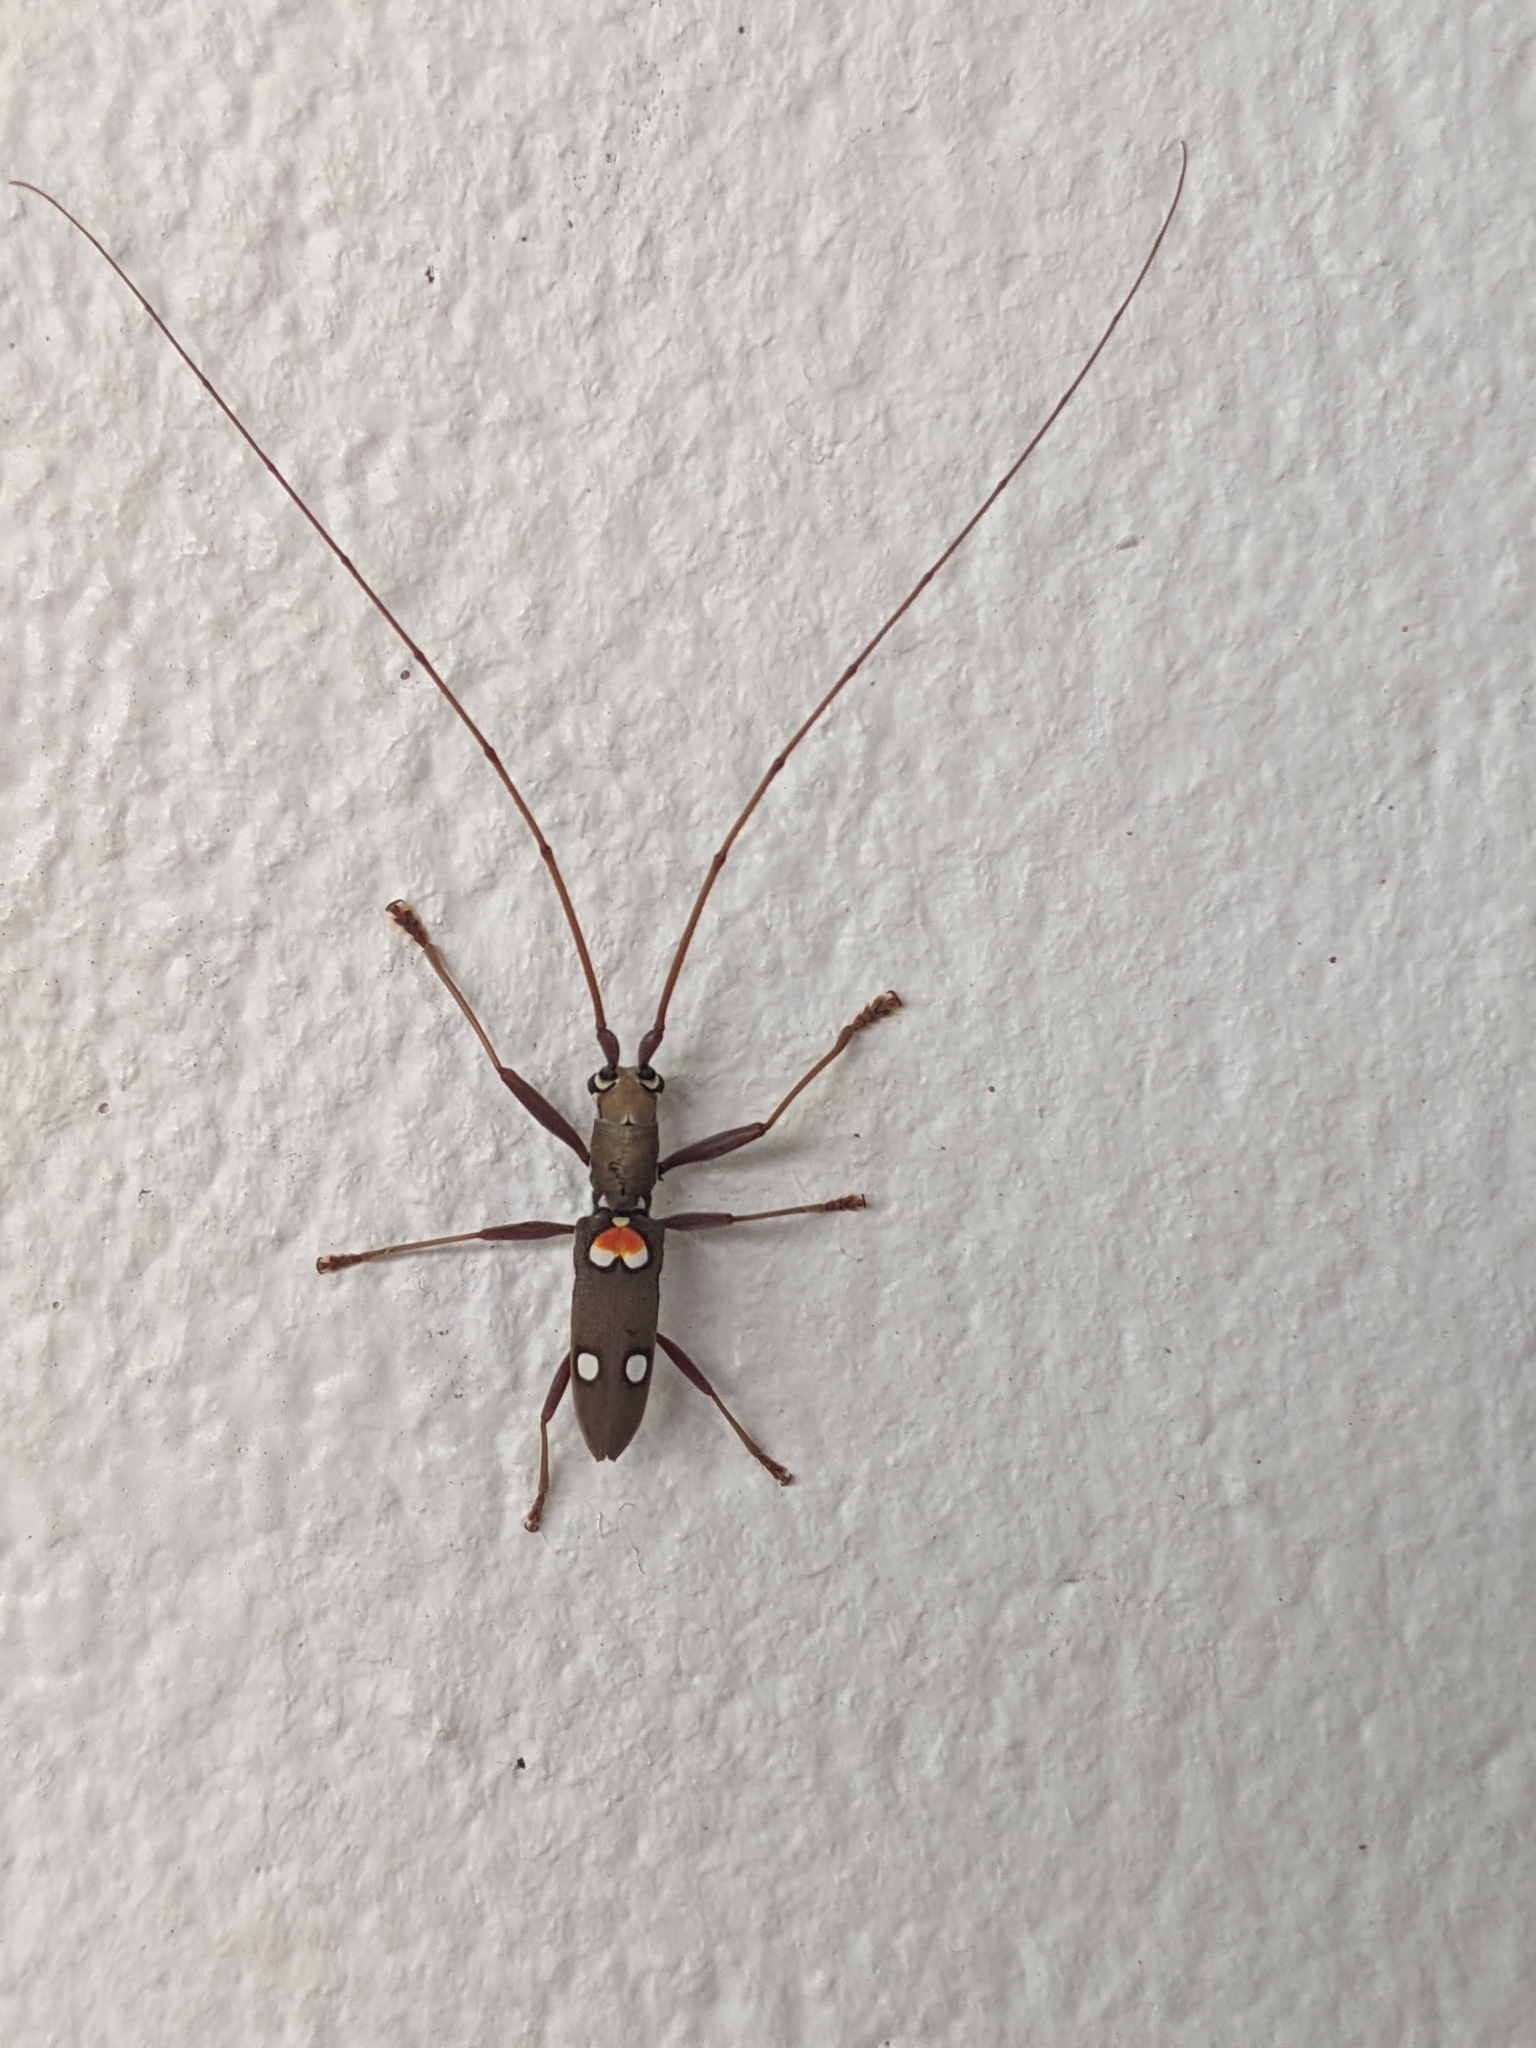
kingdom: Animalia
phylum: Arthropoda
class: Insecta
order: Coleoptera
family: Cerambycidae
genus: Olenecamptus
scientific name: Olenecamptus bilobus
